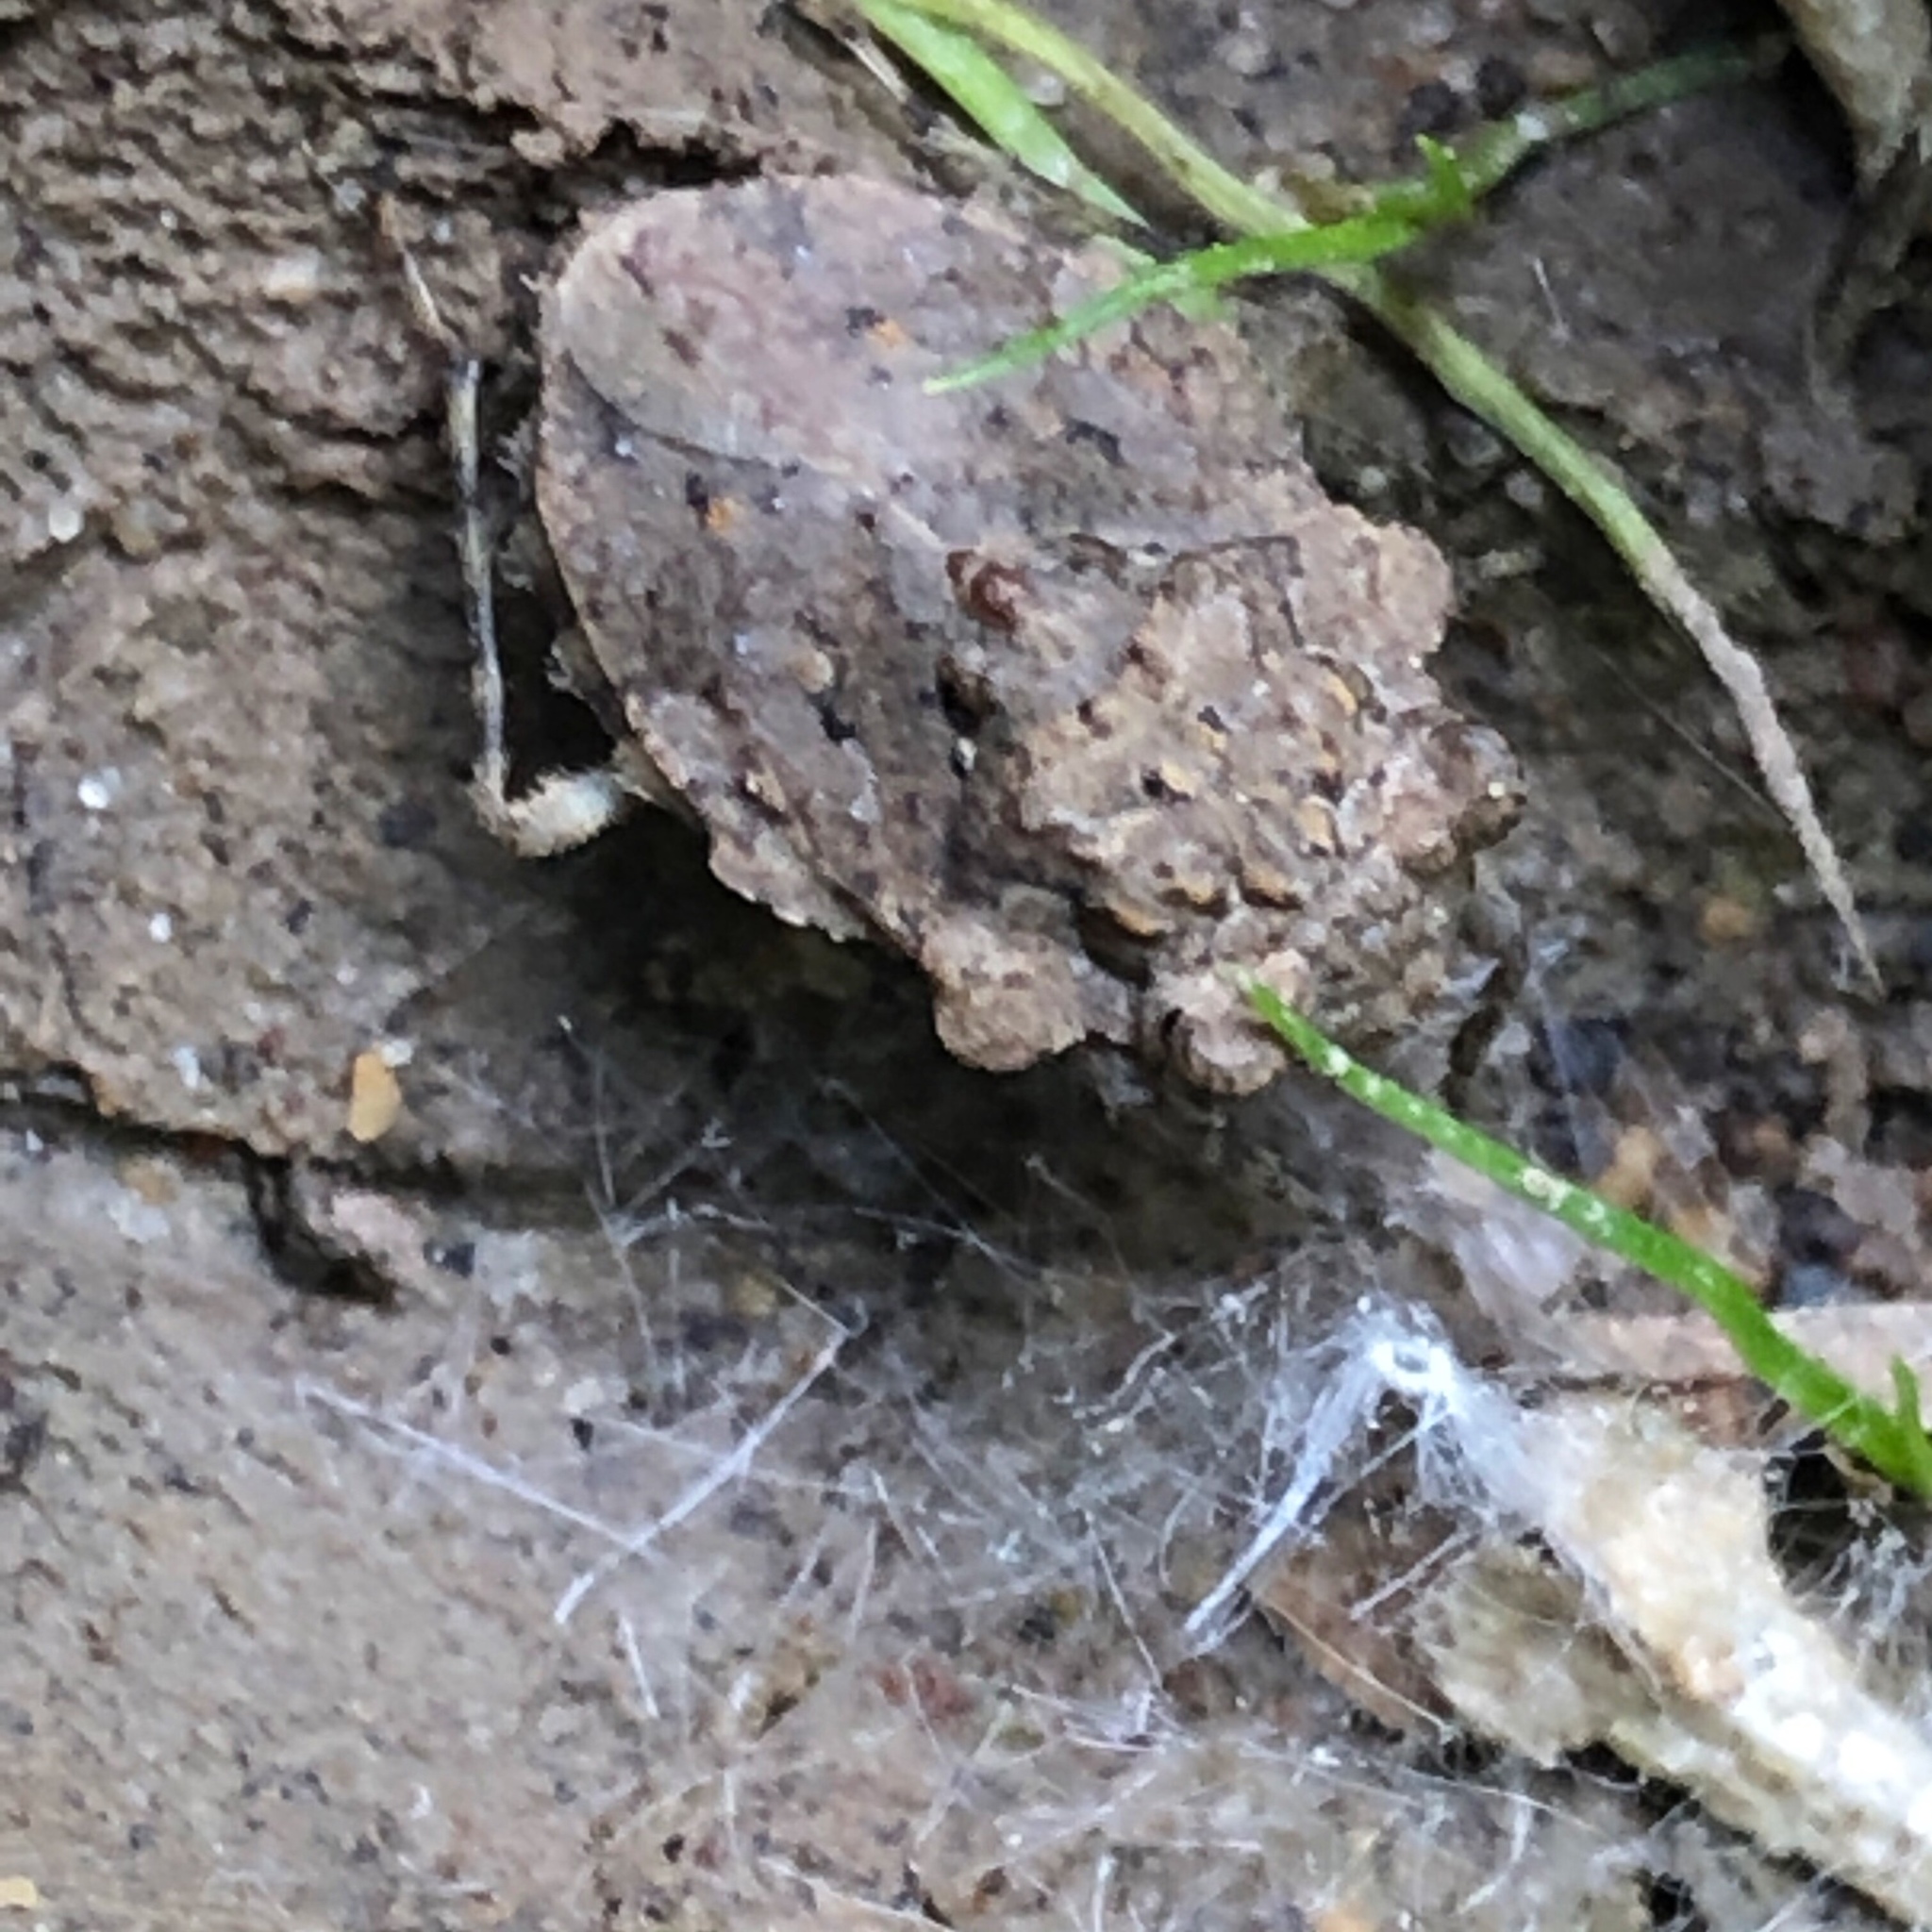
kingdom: Animalia
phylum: Arthropoda
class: Insecta
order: Hemiptera
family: Gelastocoridae
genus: Gelastocoris
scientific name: Gelastocoris oculatus
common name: Toad bug
